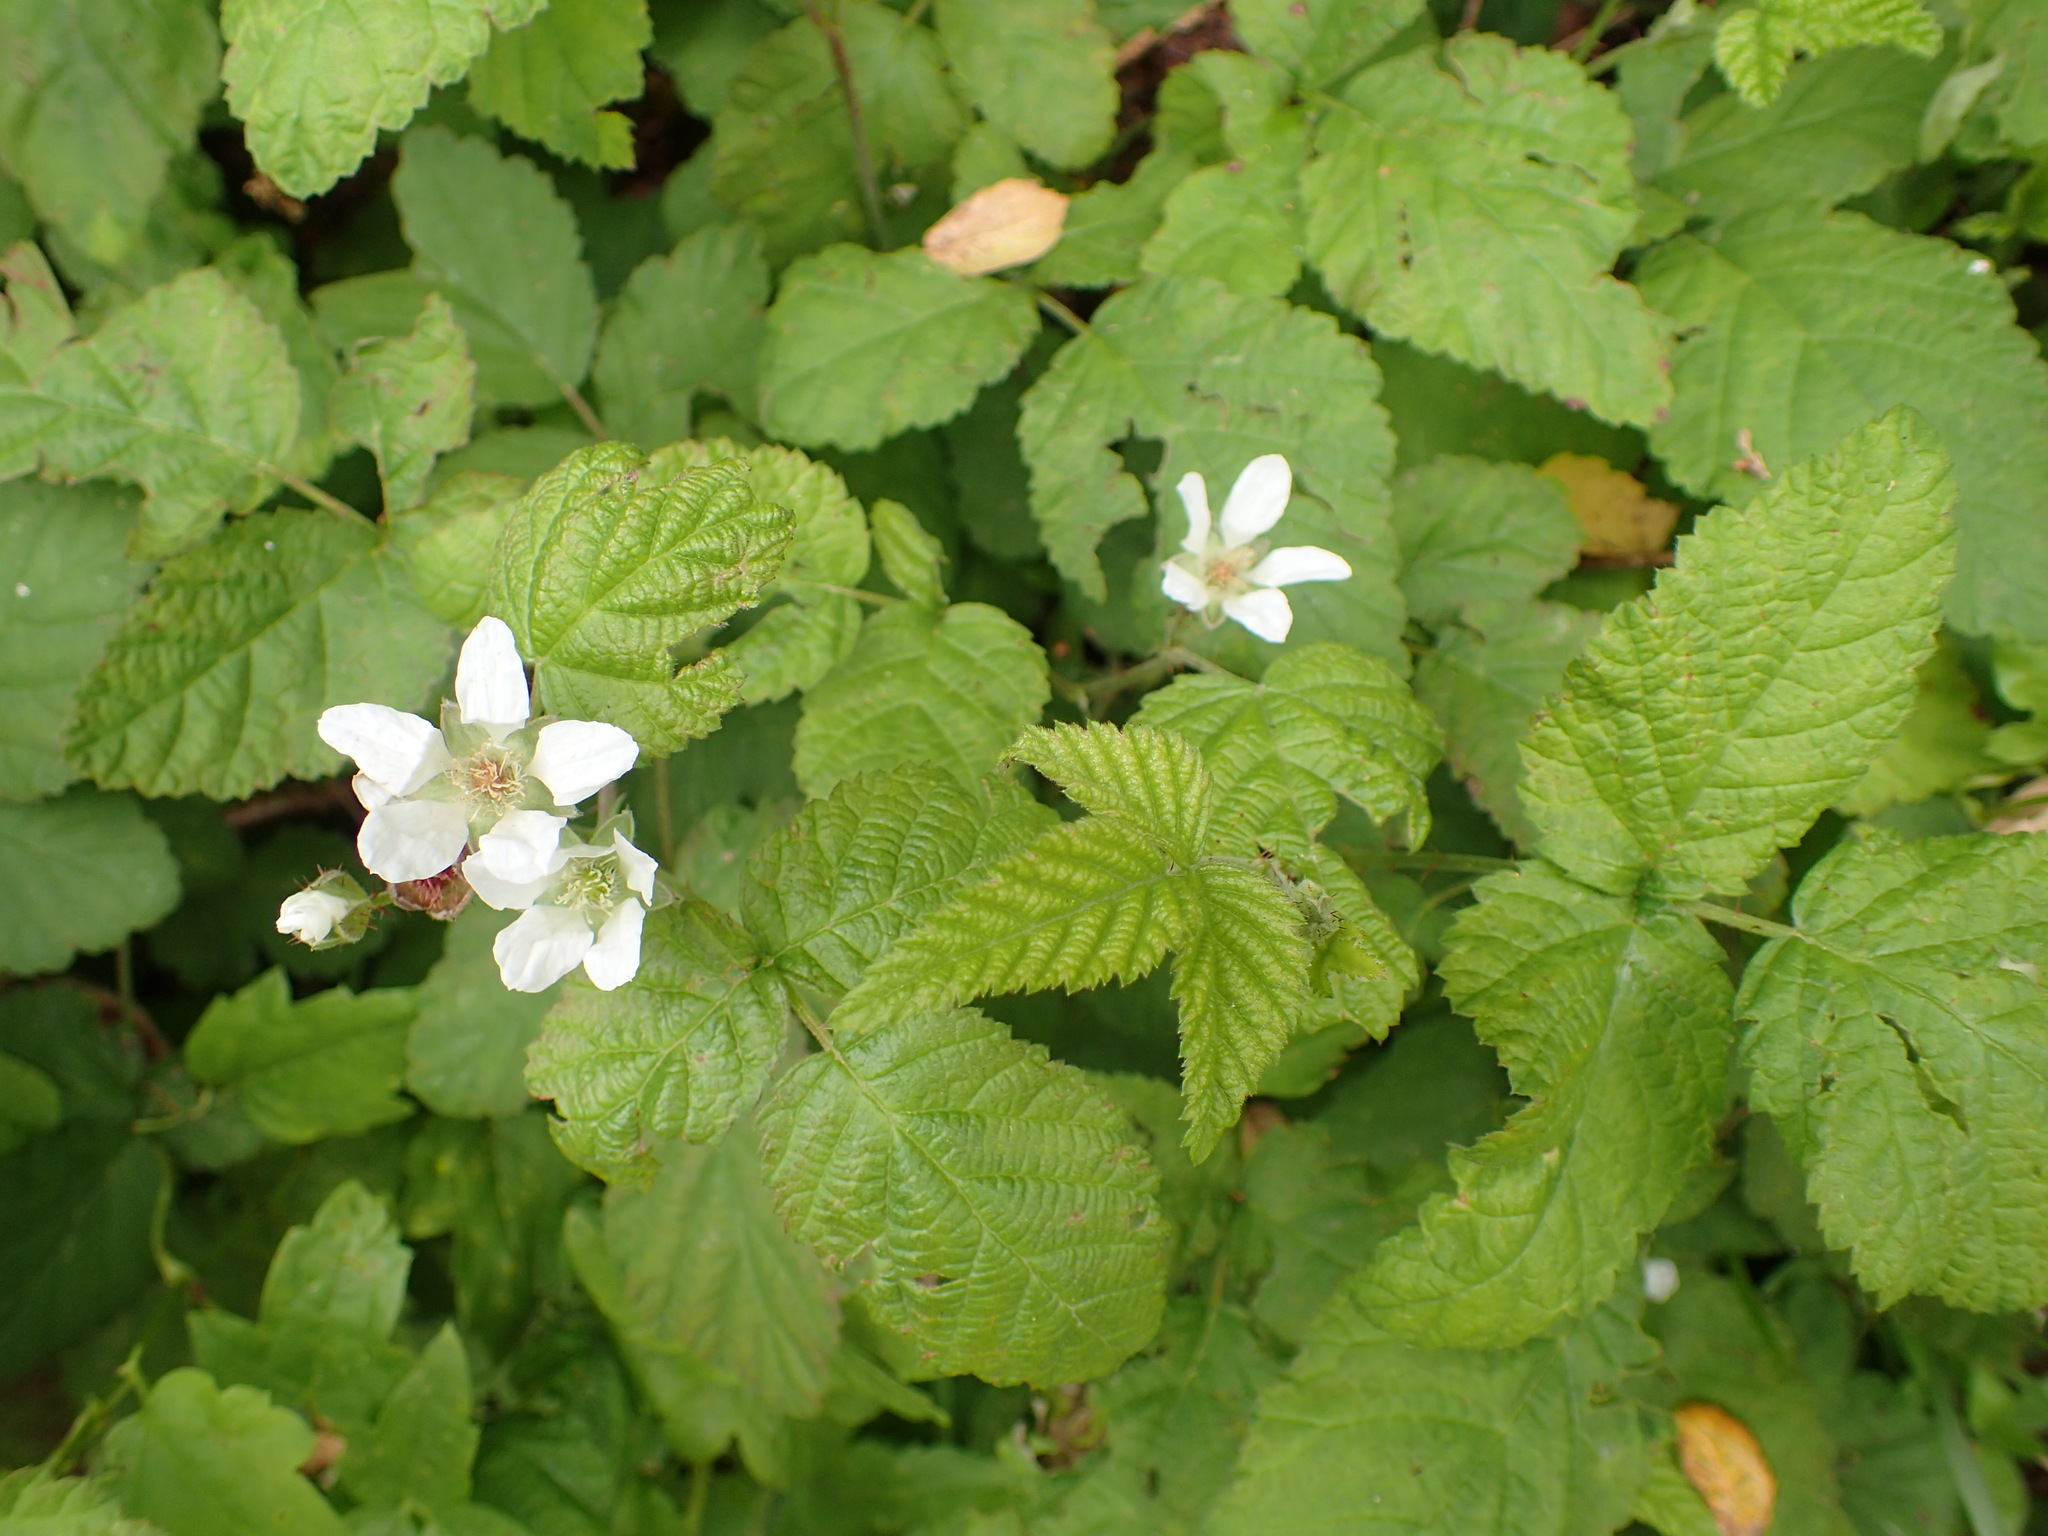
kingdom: Plantae
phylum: Tracheophyta
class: Magnoliopsida
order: Rosales
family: Rosaceae
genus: Rubus
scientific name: Rubus ursinus
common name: Pacific blackberry
